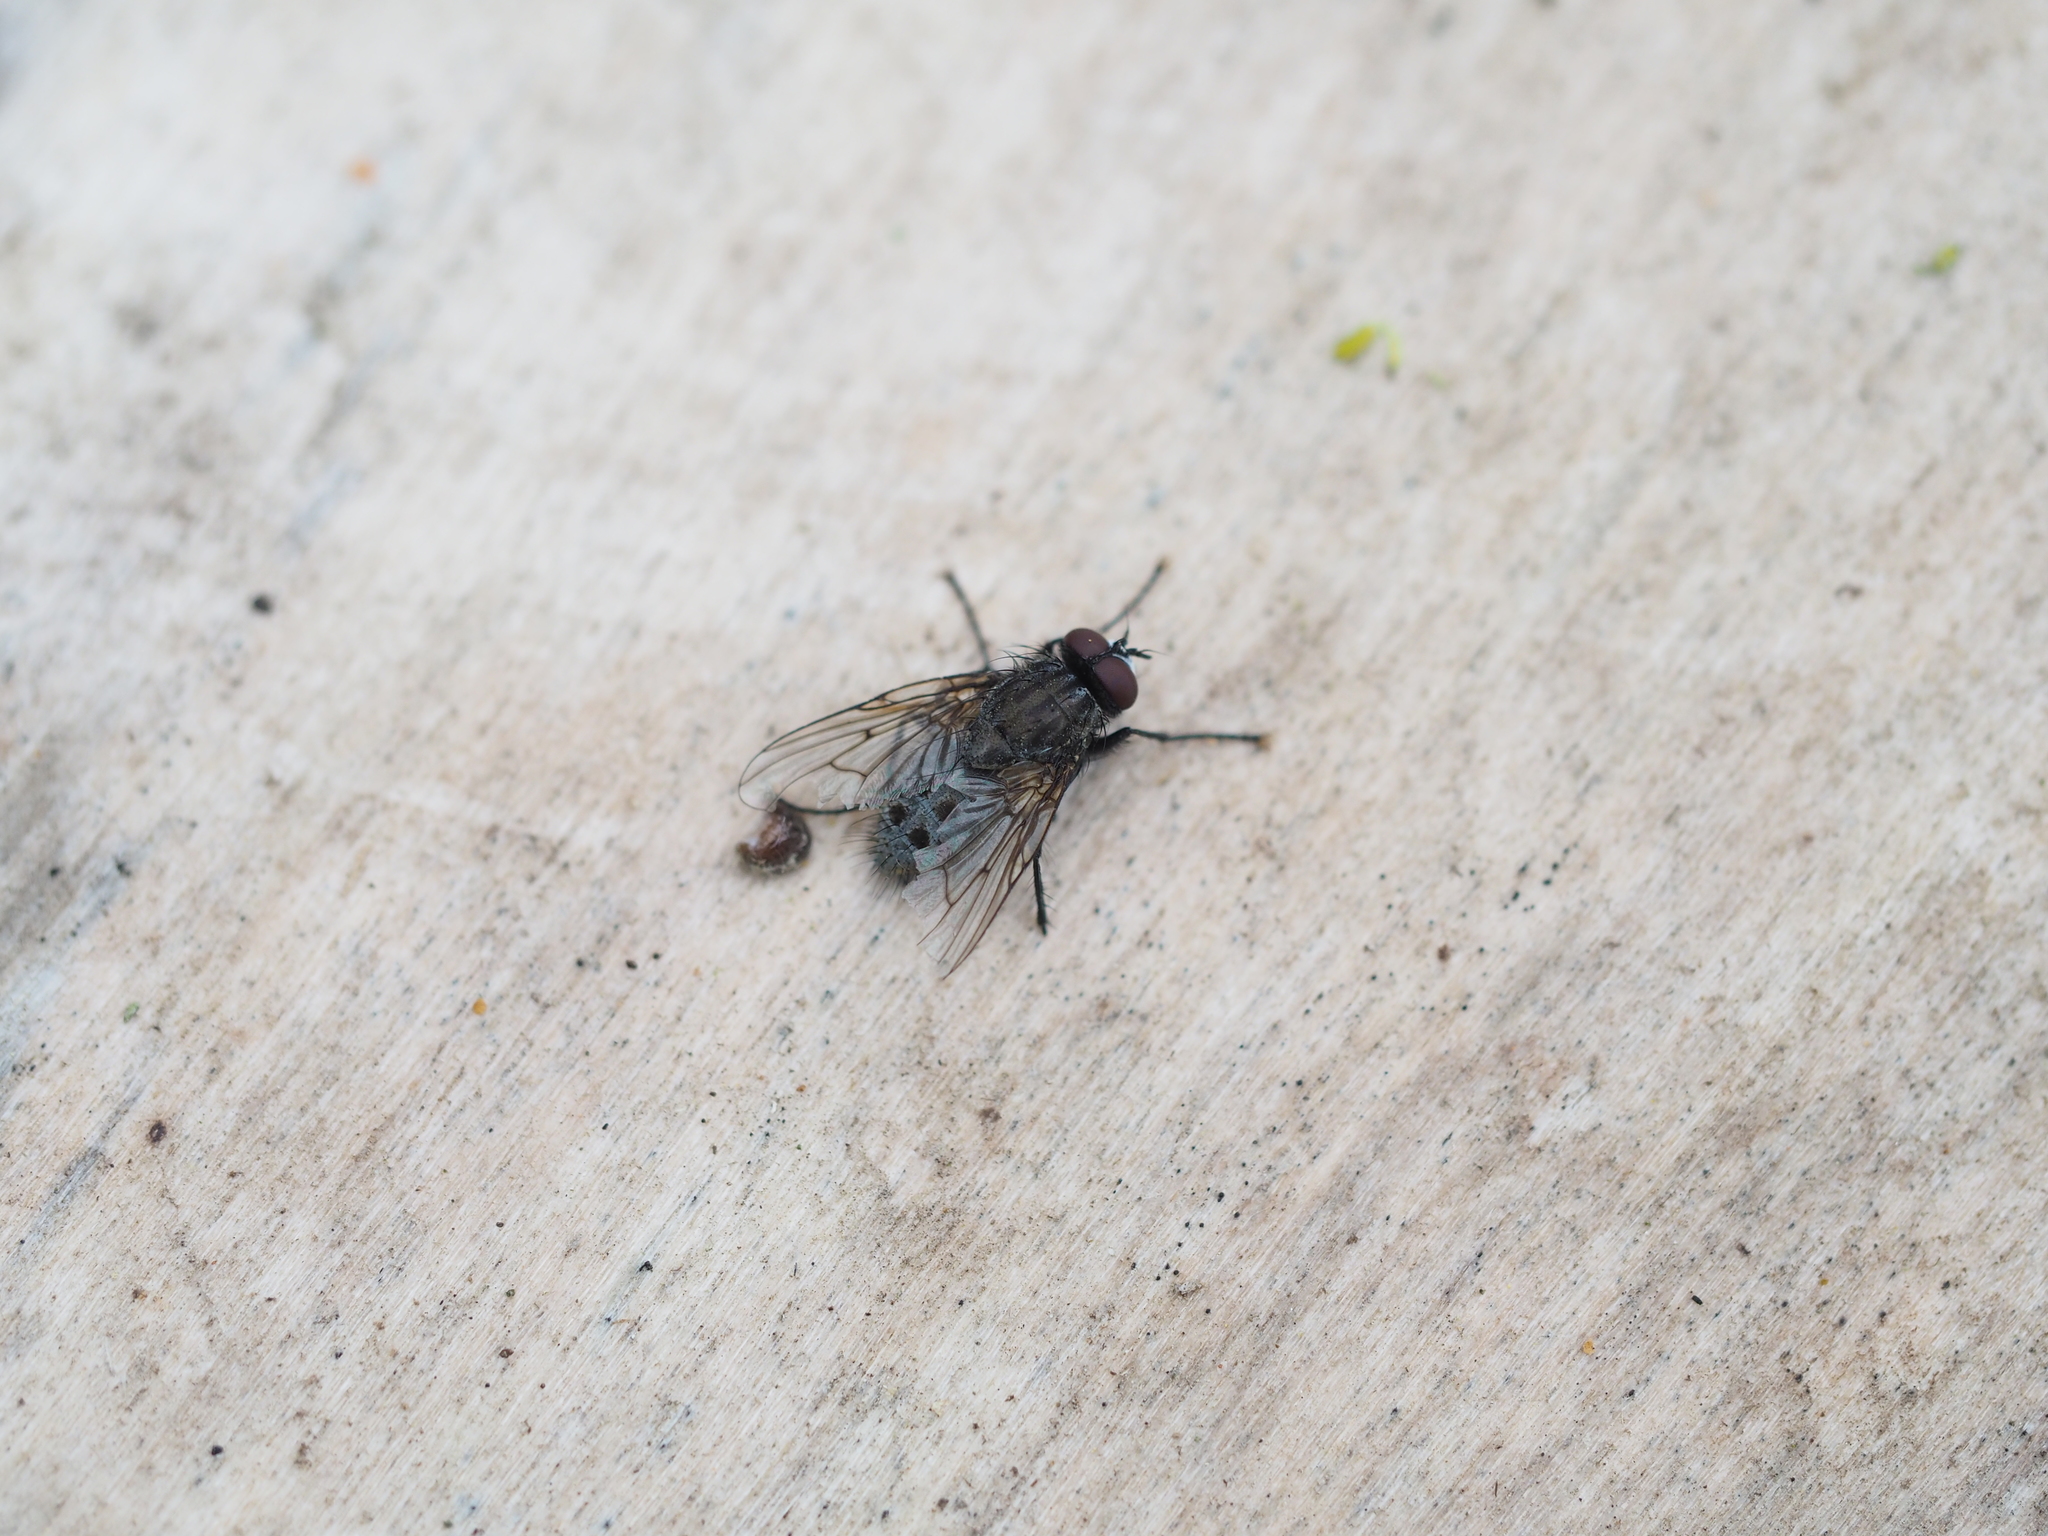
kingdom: Animalia
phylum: Arthropoda
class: Insecta
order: Diptera
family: Muscidae
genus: Helina
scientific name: Helina evecta
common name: Muscid fly
